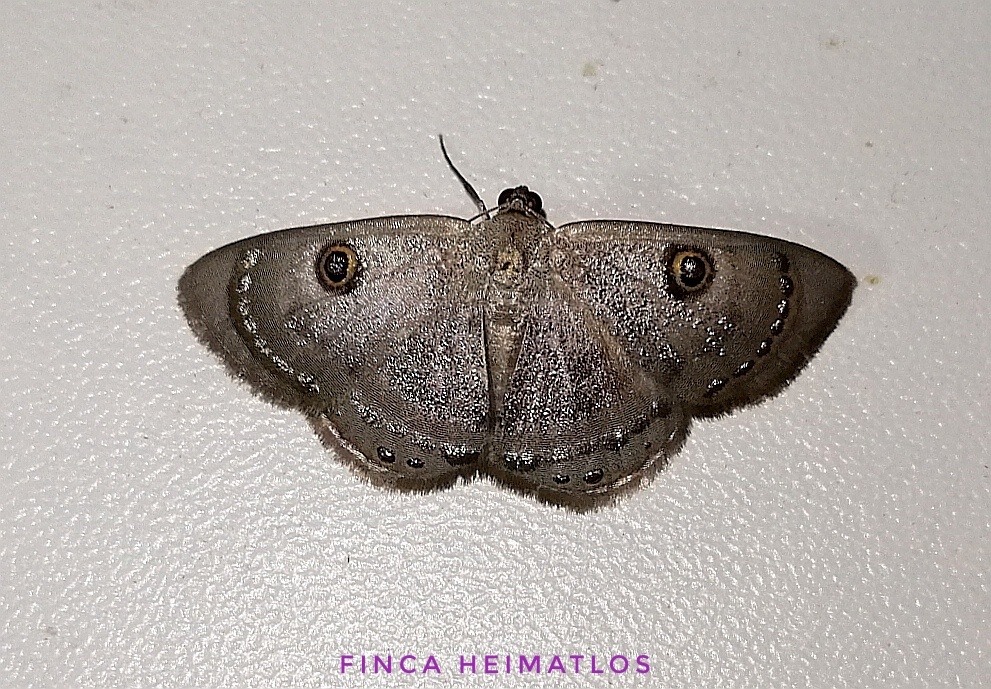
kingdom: Animalia
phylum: Arthropoda
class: Insecta
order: Lepidoptera
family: Geometridae
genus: Argyrotome
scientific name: Argyrotome melae
